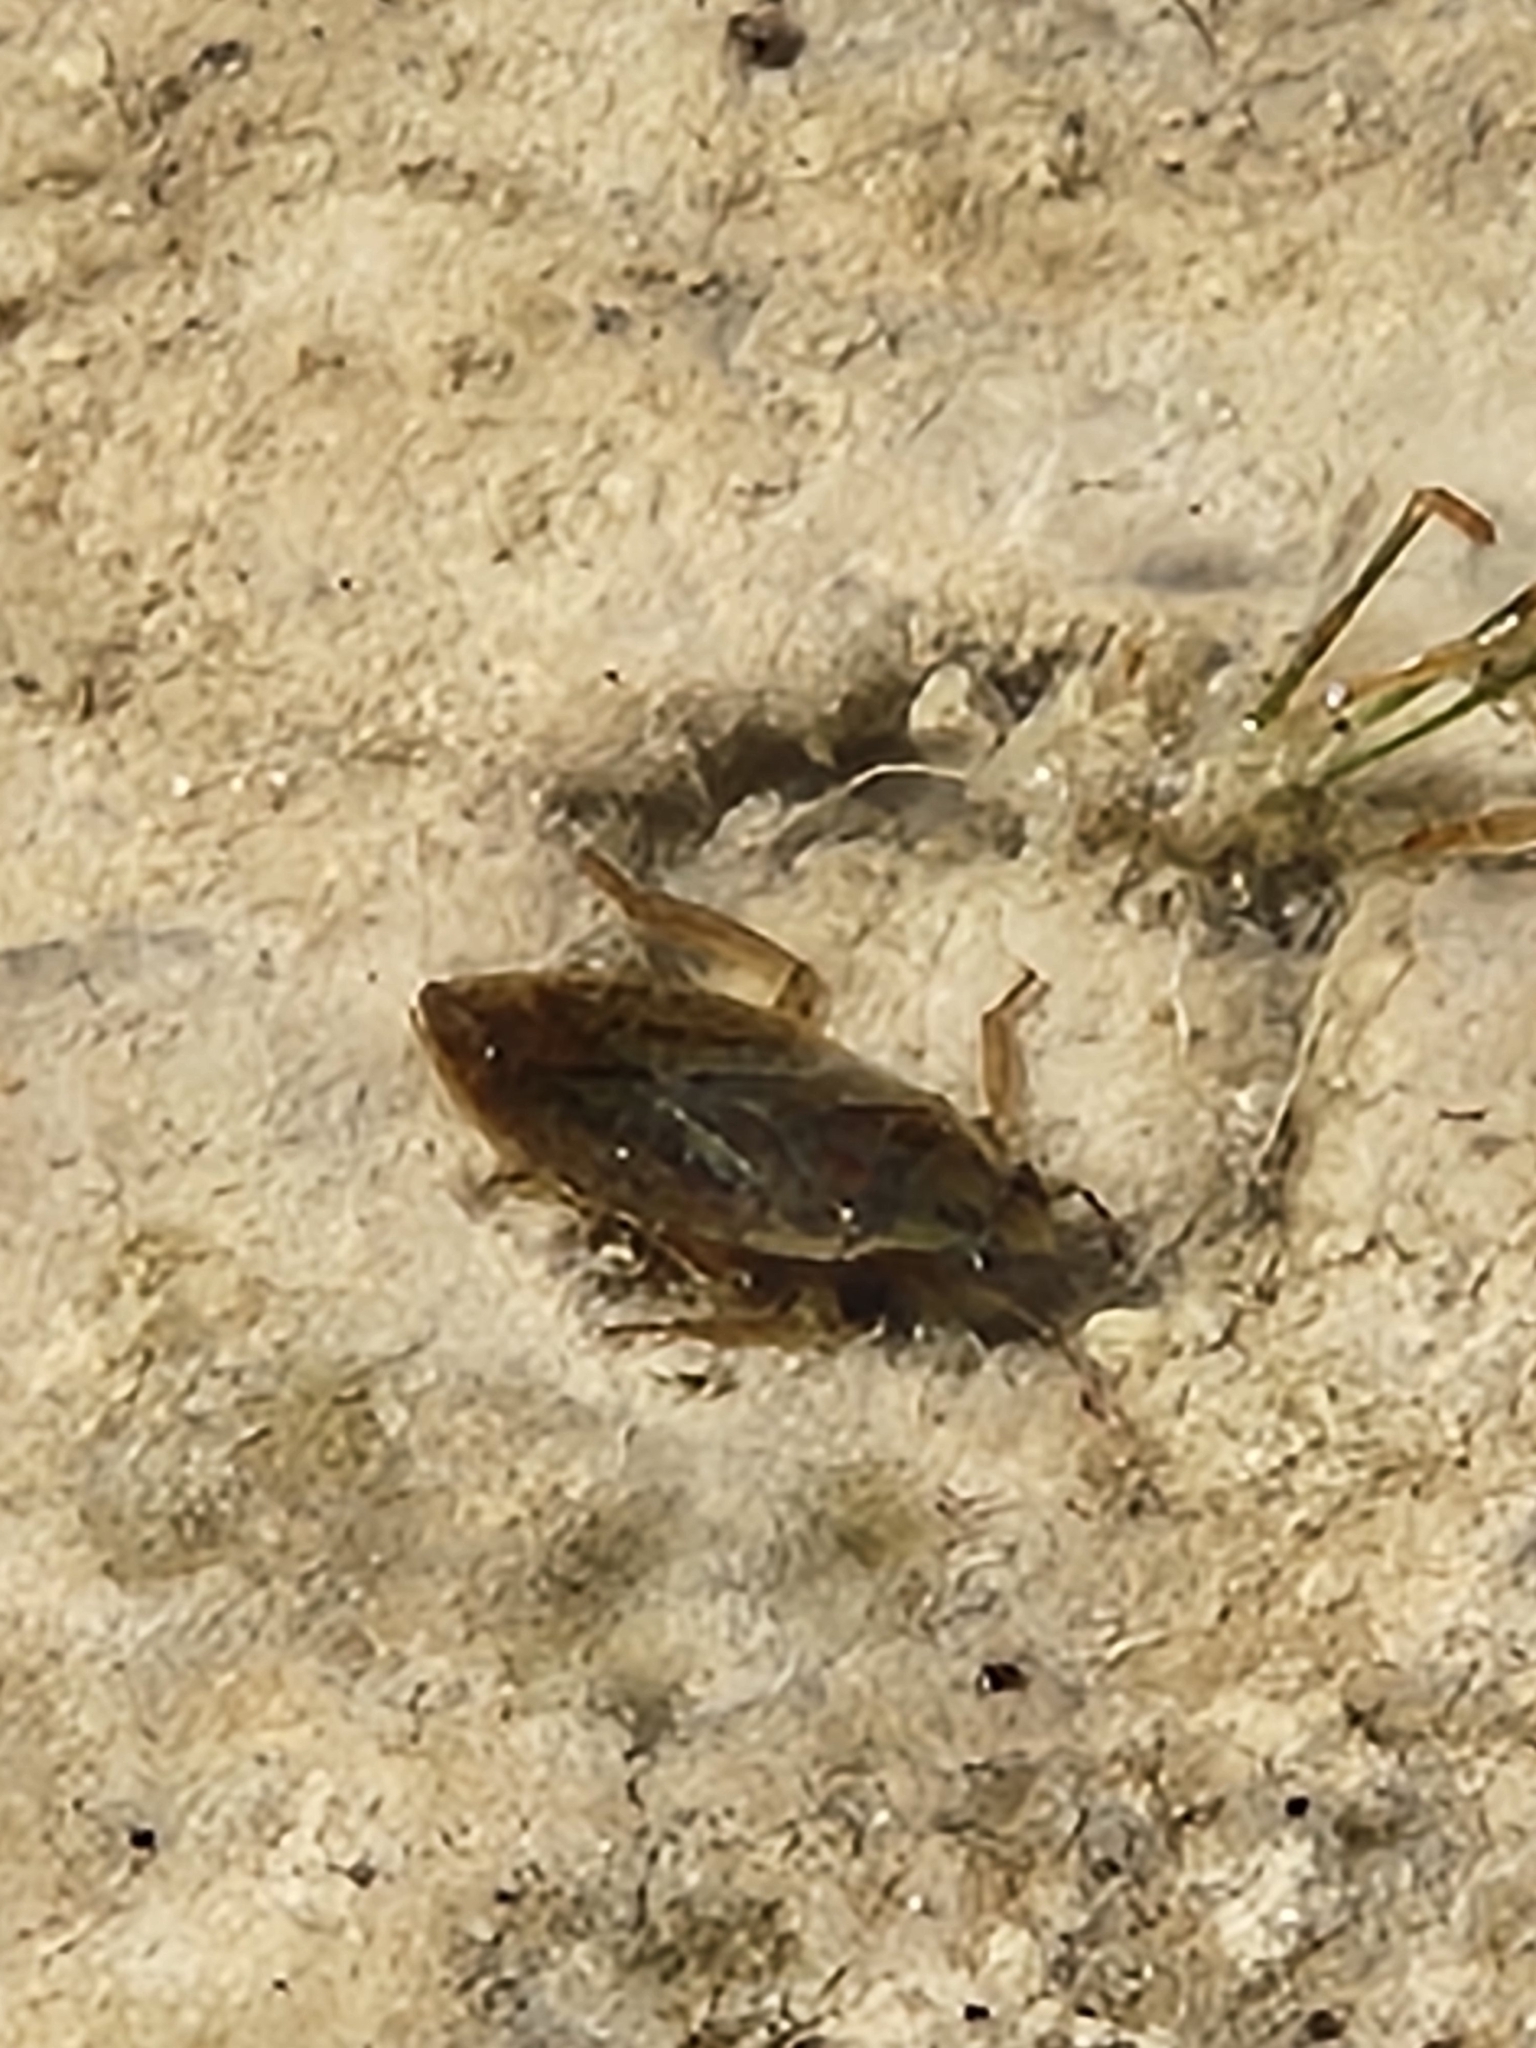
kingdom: Animalia
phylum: Arthropoda
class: Insecta
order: Hemiptera
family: Belostomatidae
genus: Belostoma
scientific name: Belostoma
